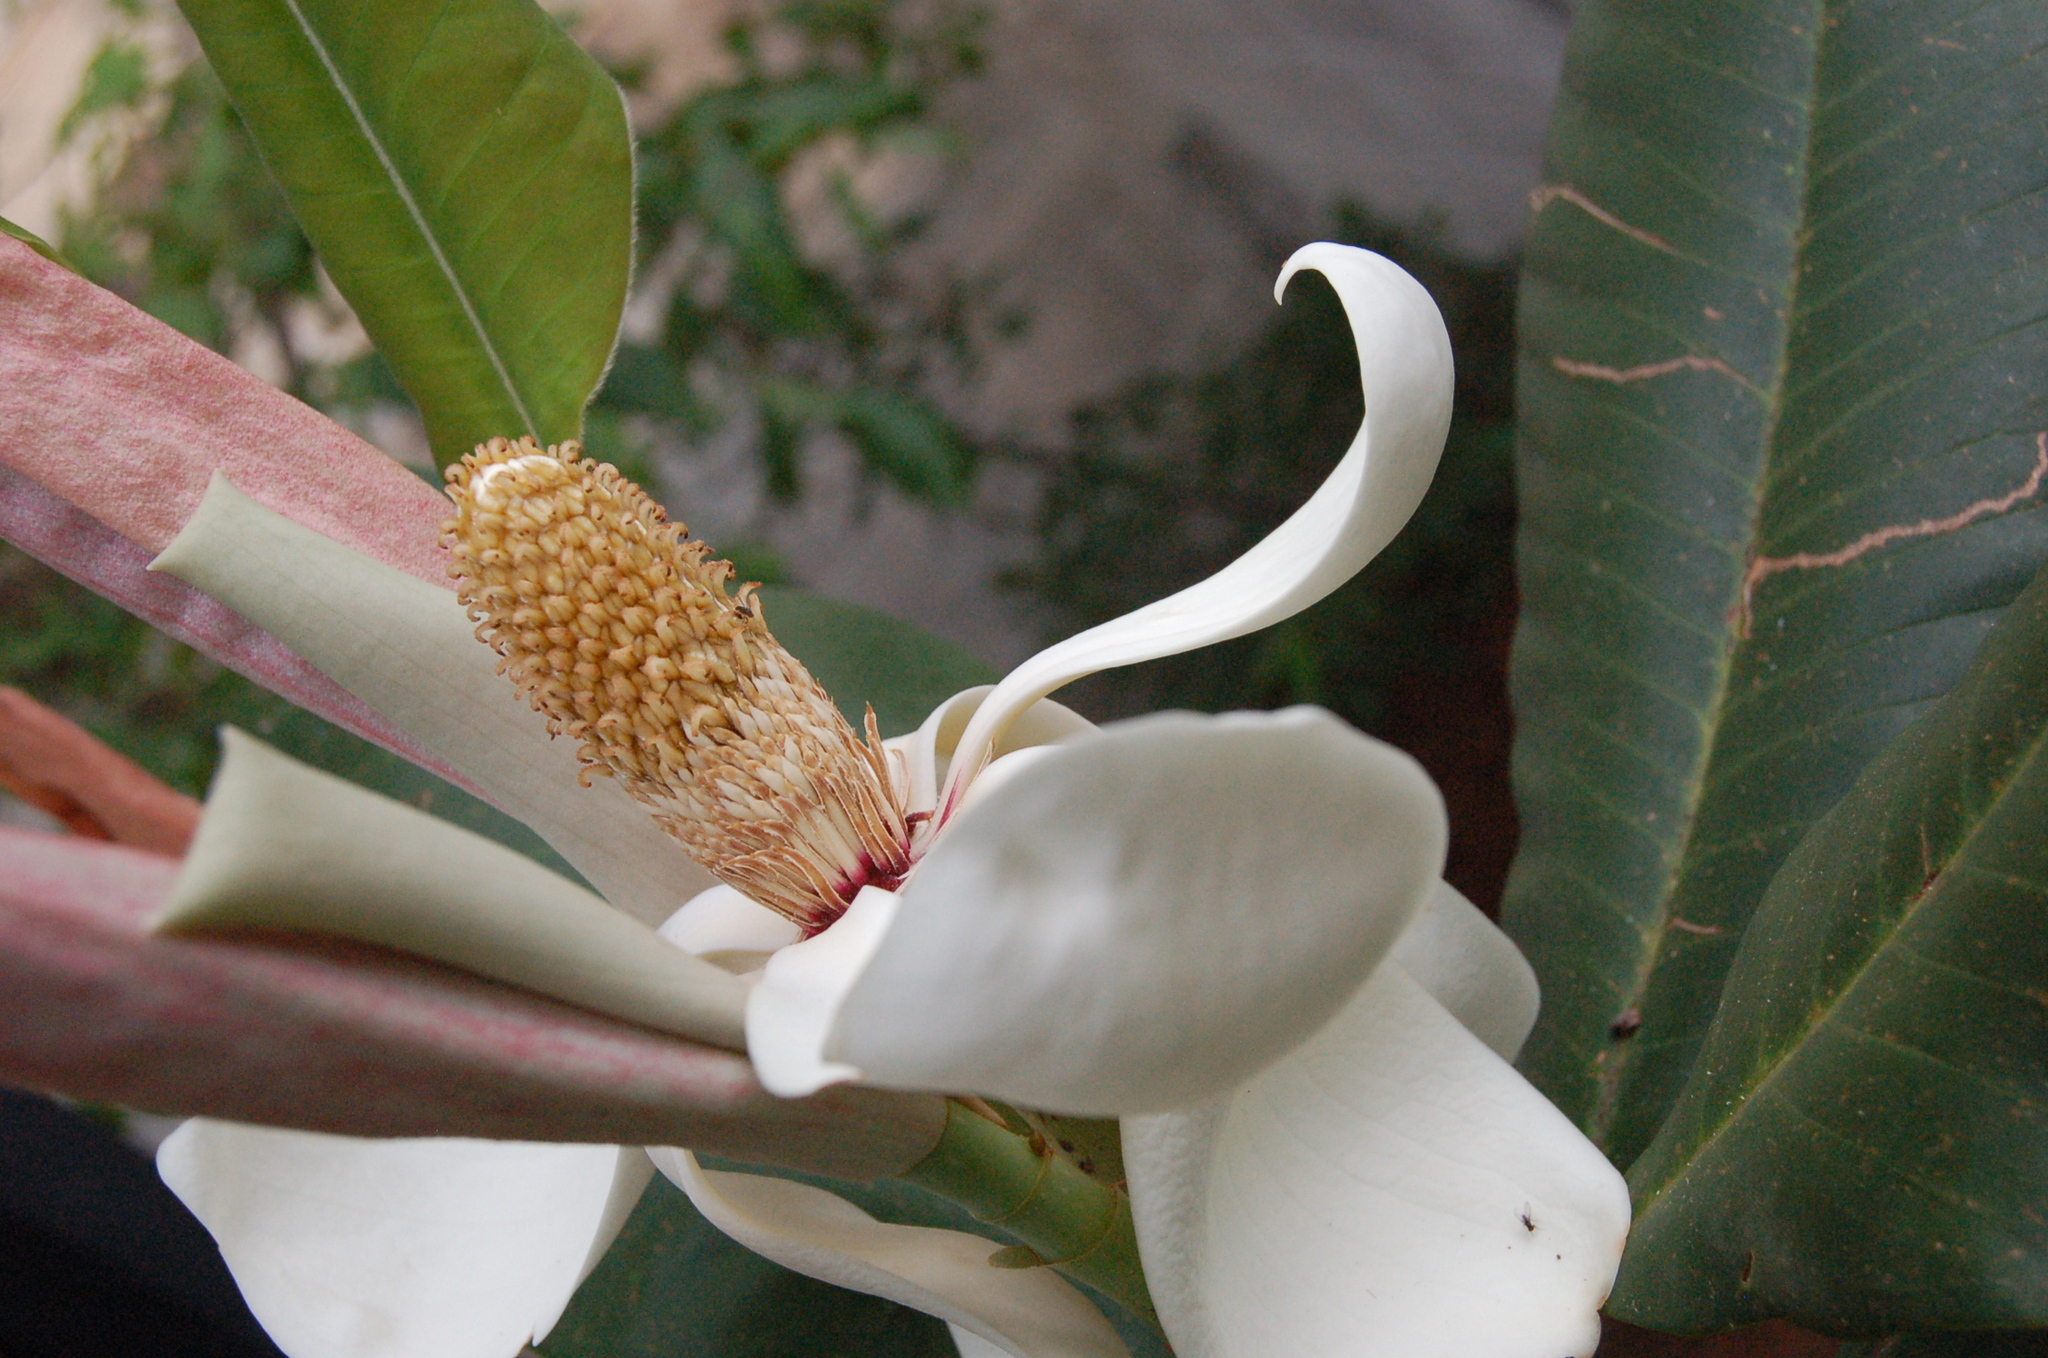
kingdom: Plantae
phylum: Tracheophyta
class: Magnoliopsida
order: Magnoliales
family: Magnoliaceae
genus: Magnolia
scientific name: Magnolia sharpii
